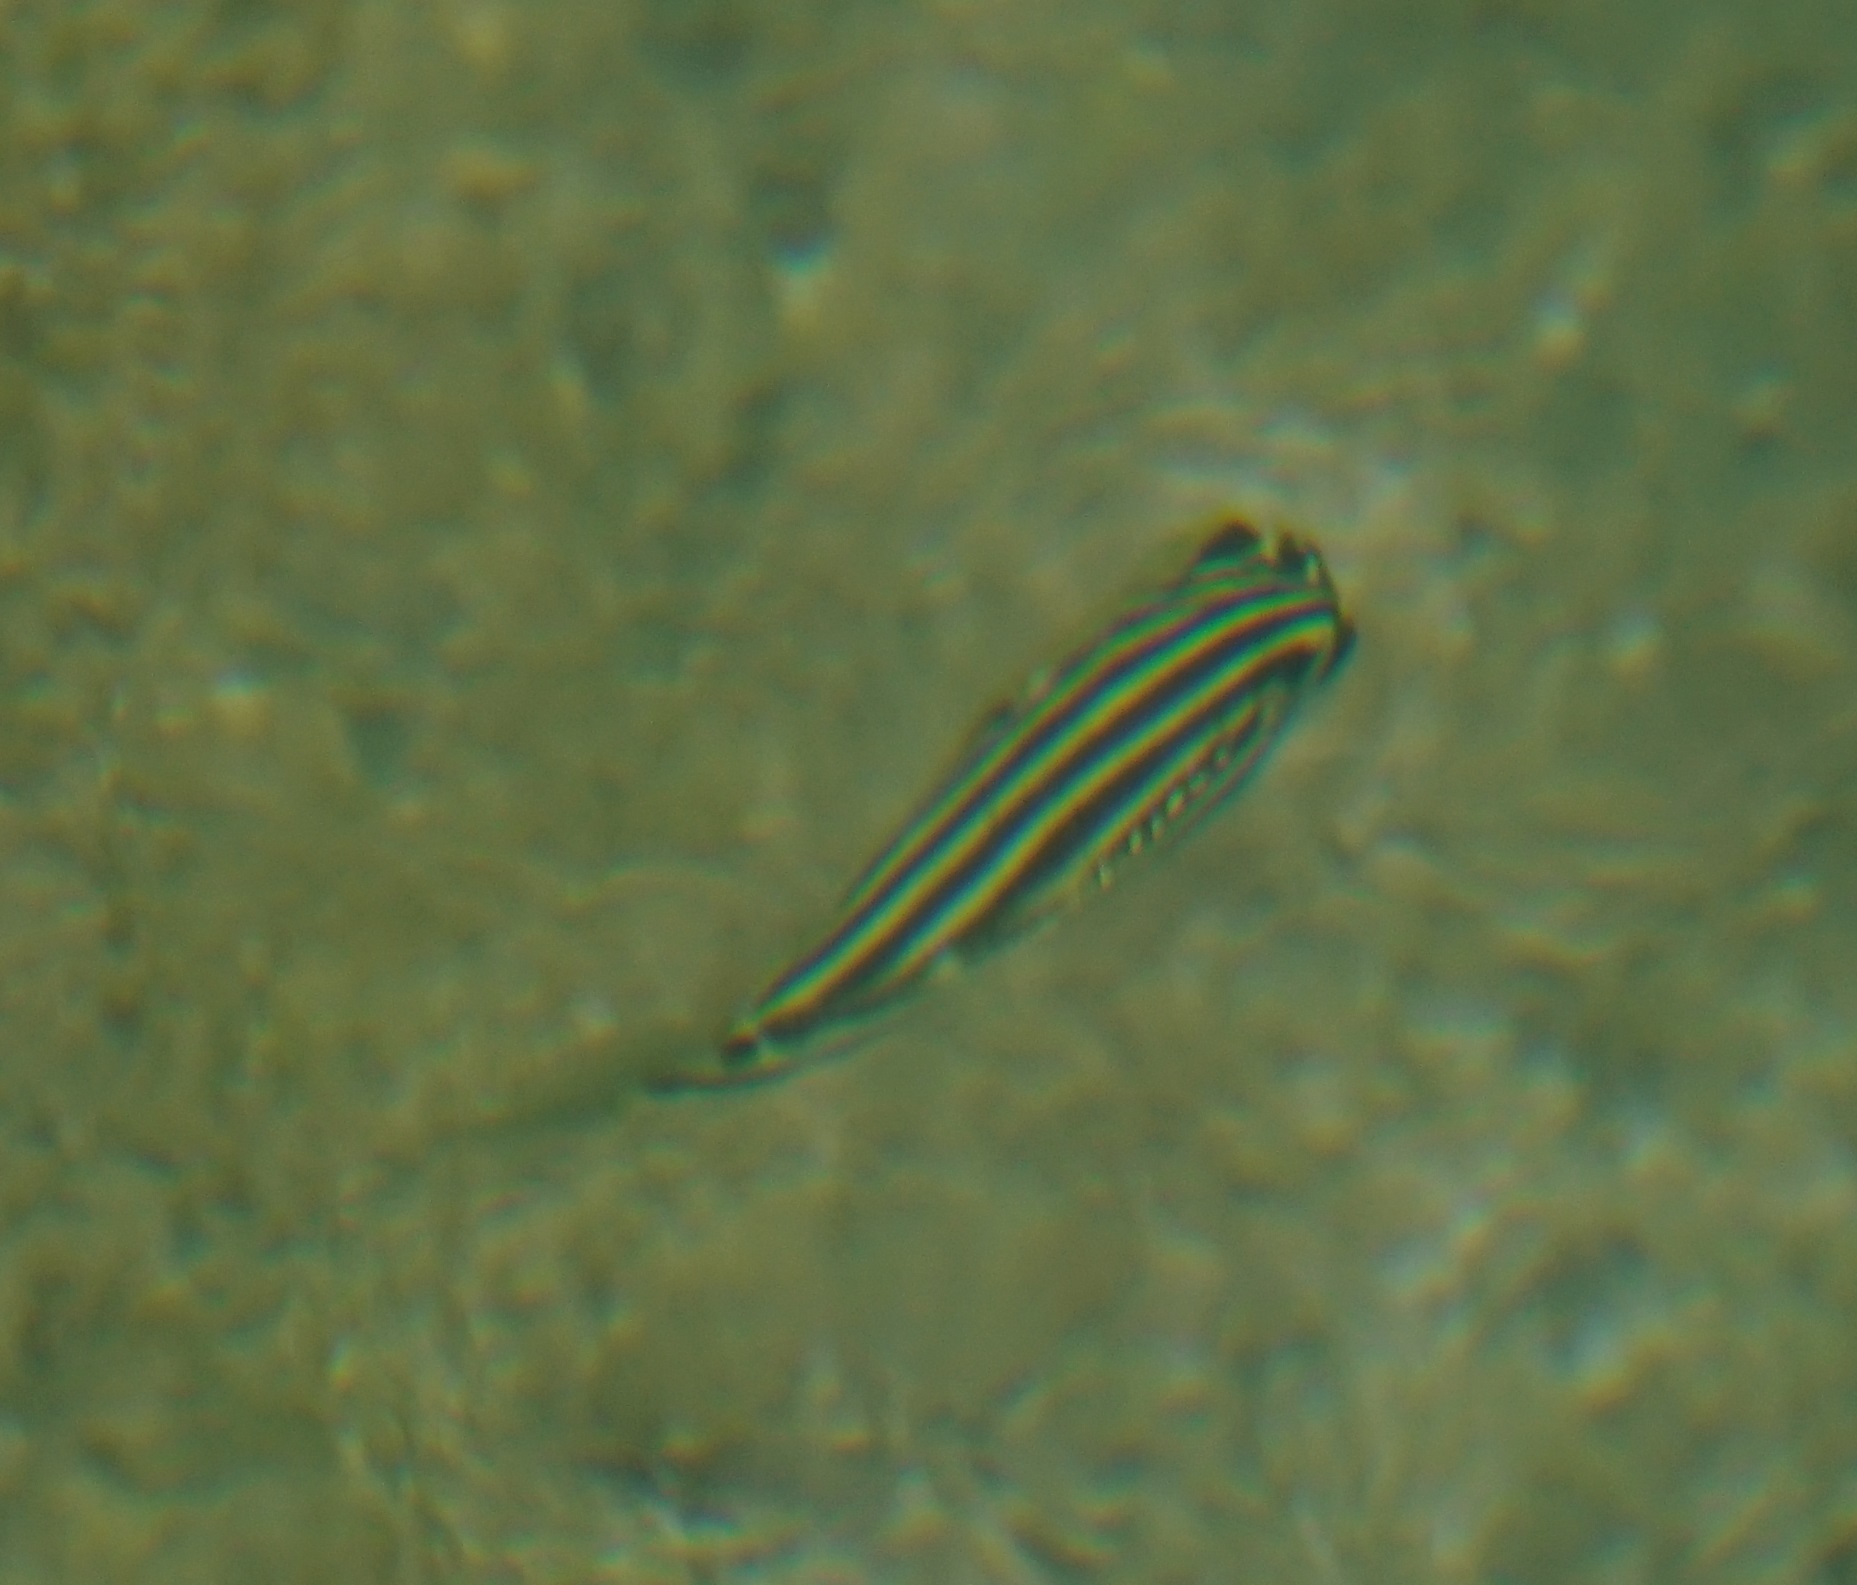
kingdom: Animalia
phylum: Chordata
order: Perciformes
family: Kyphosidae
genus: Microcanthus
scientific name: Microcanthus joyceae
